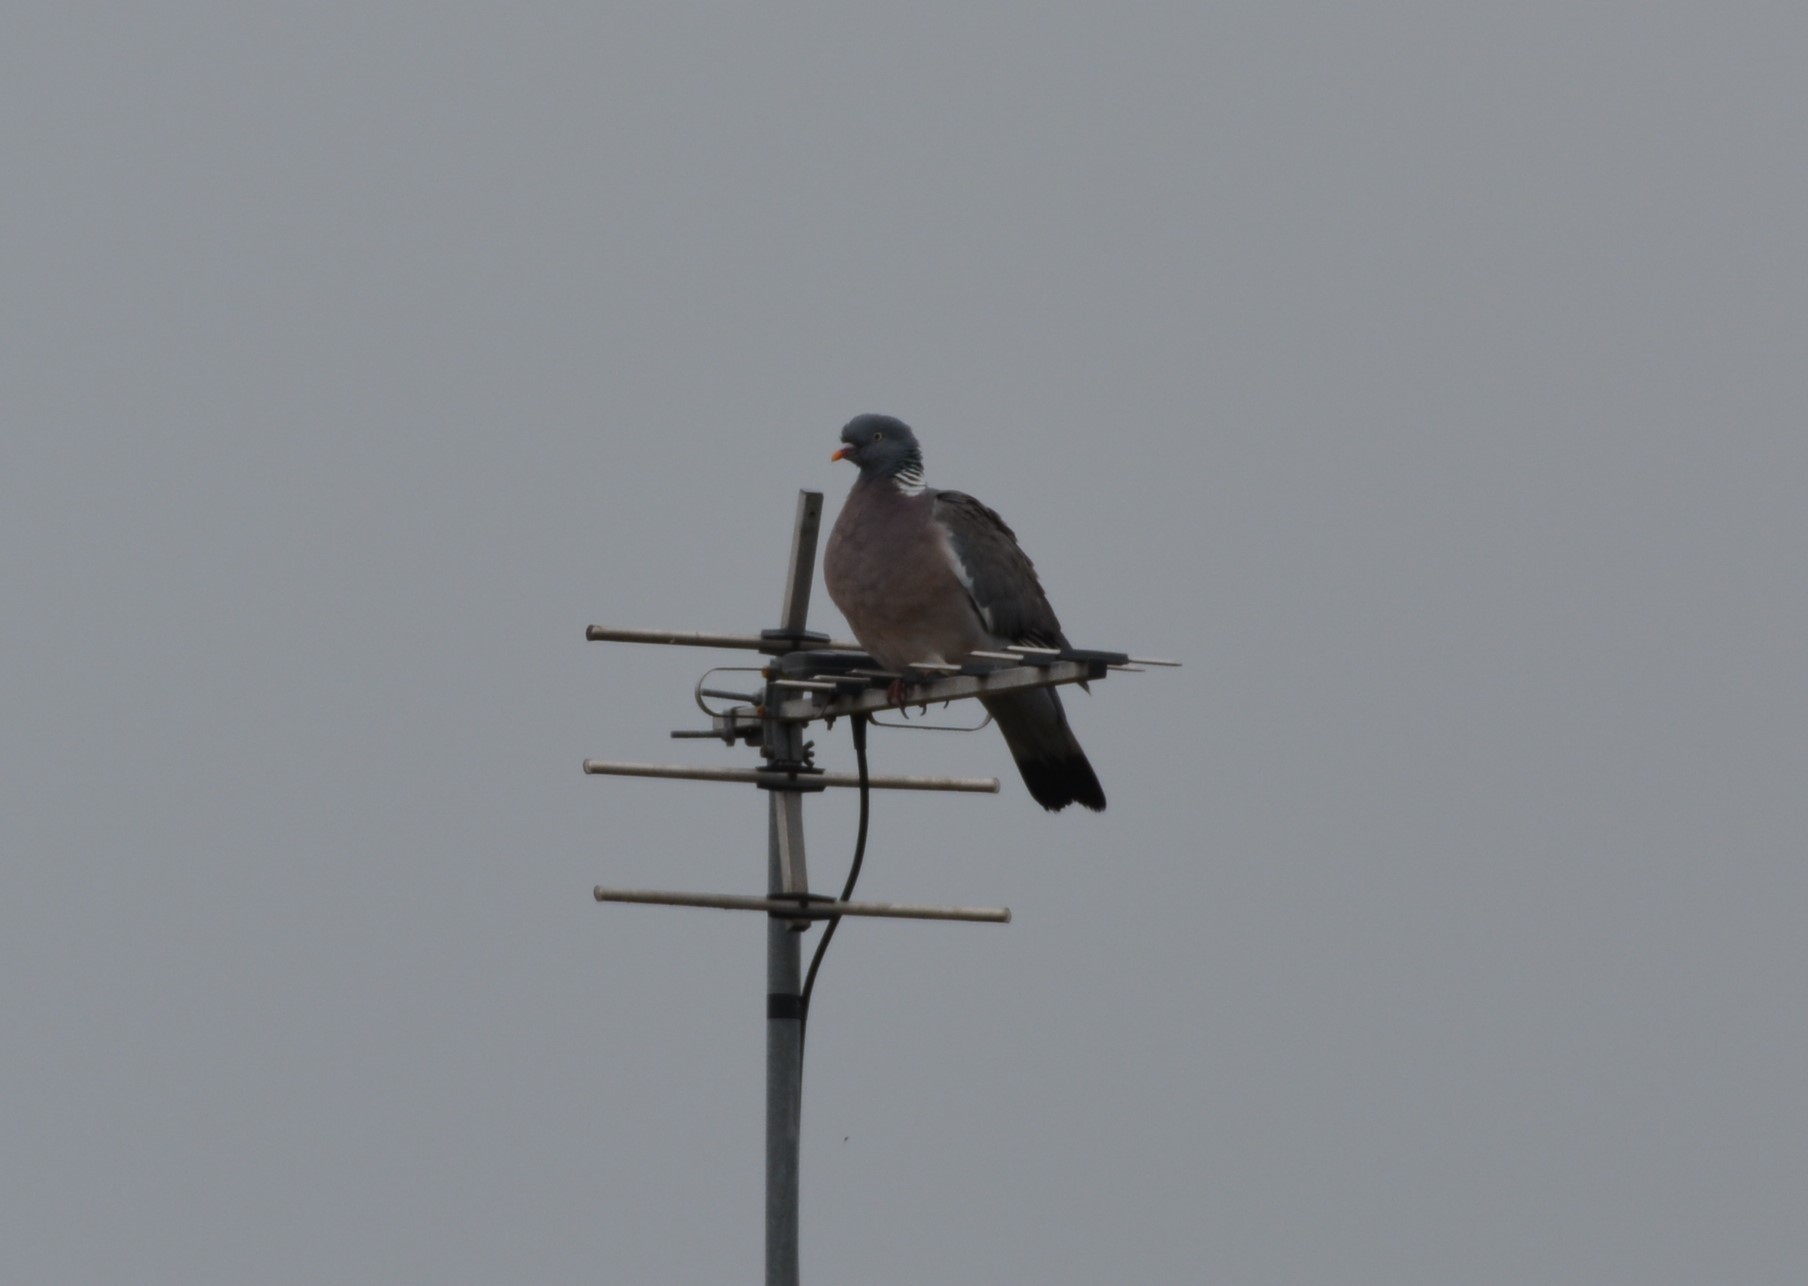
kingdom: Animalia
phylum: Chordata
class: Aves
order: Columbiformes
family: Columbidae
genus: Columba
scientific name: Columba palumbus
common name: Common wood pigeon
